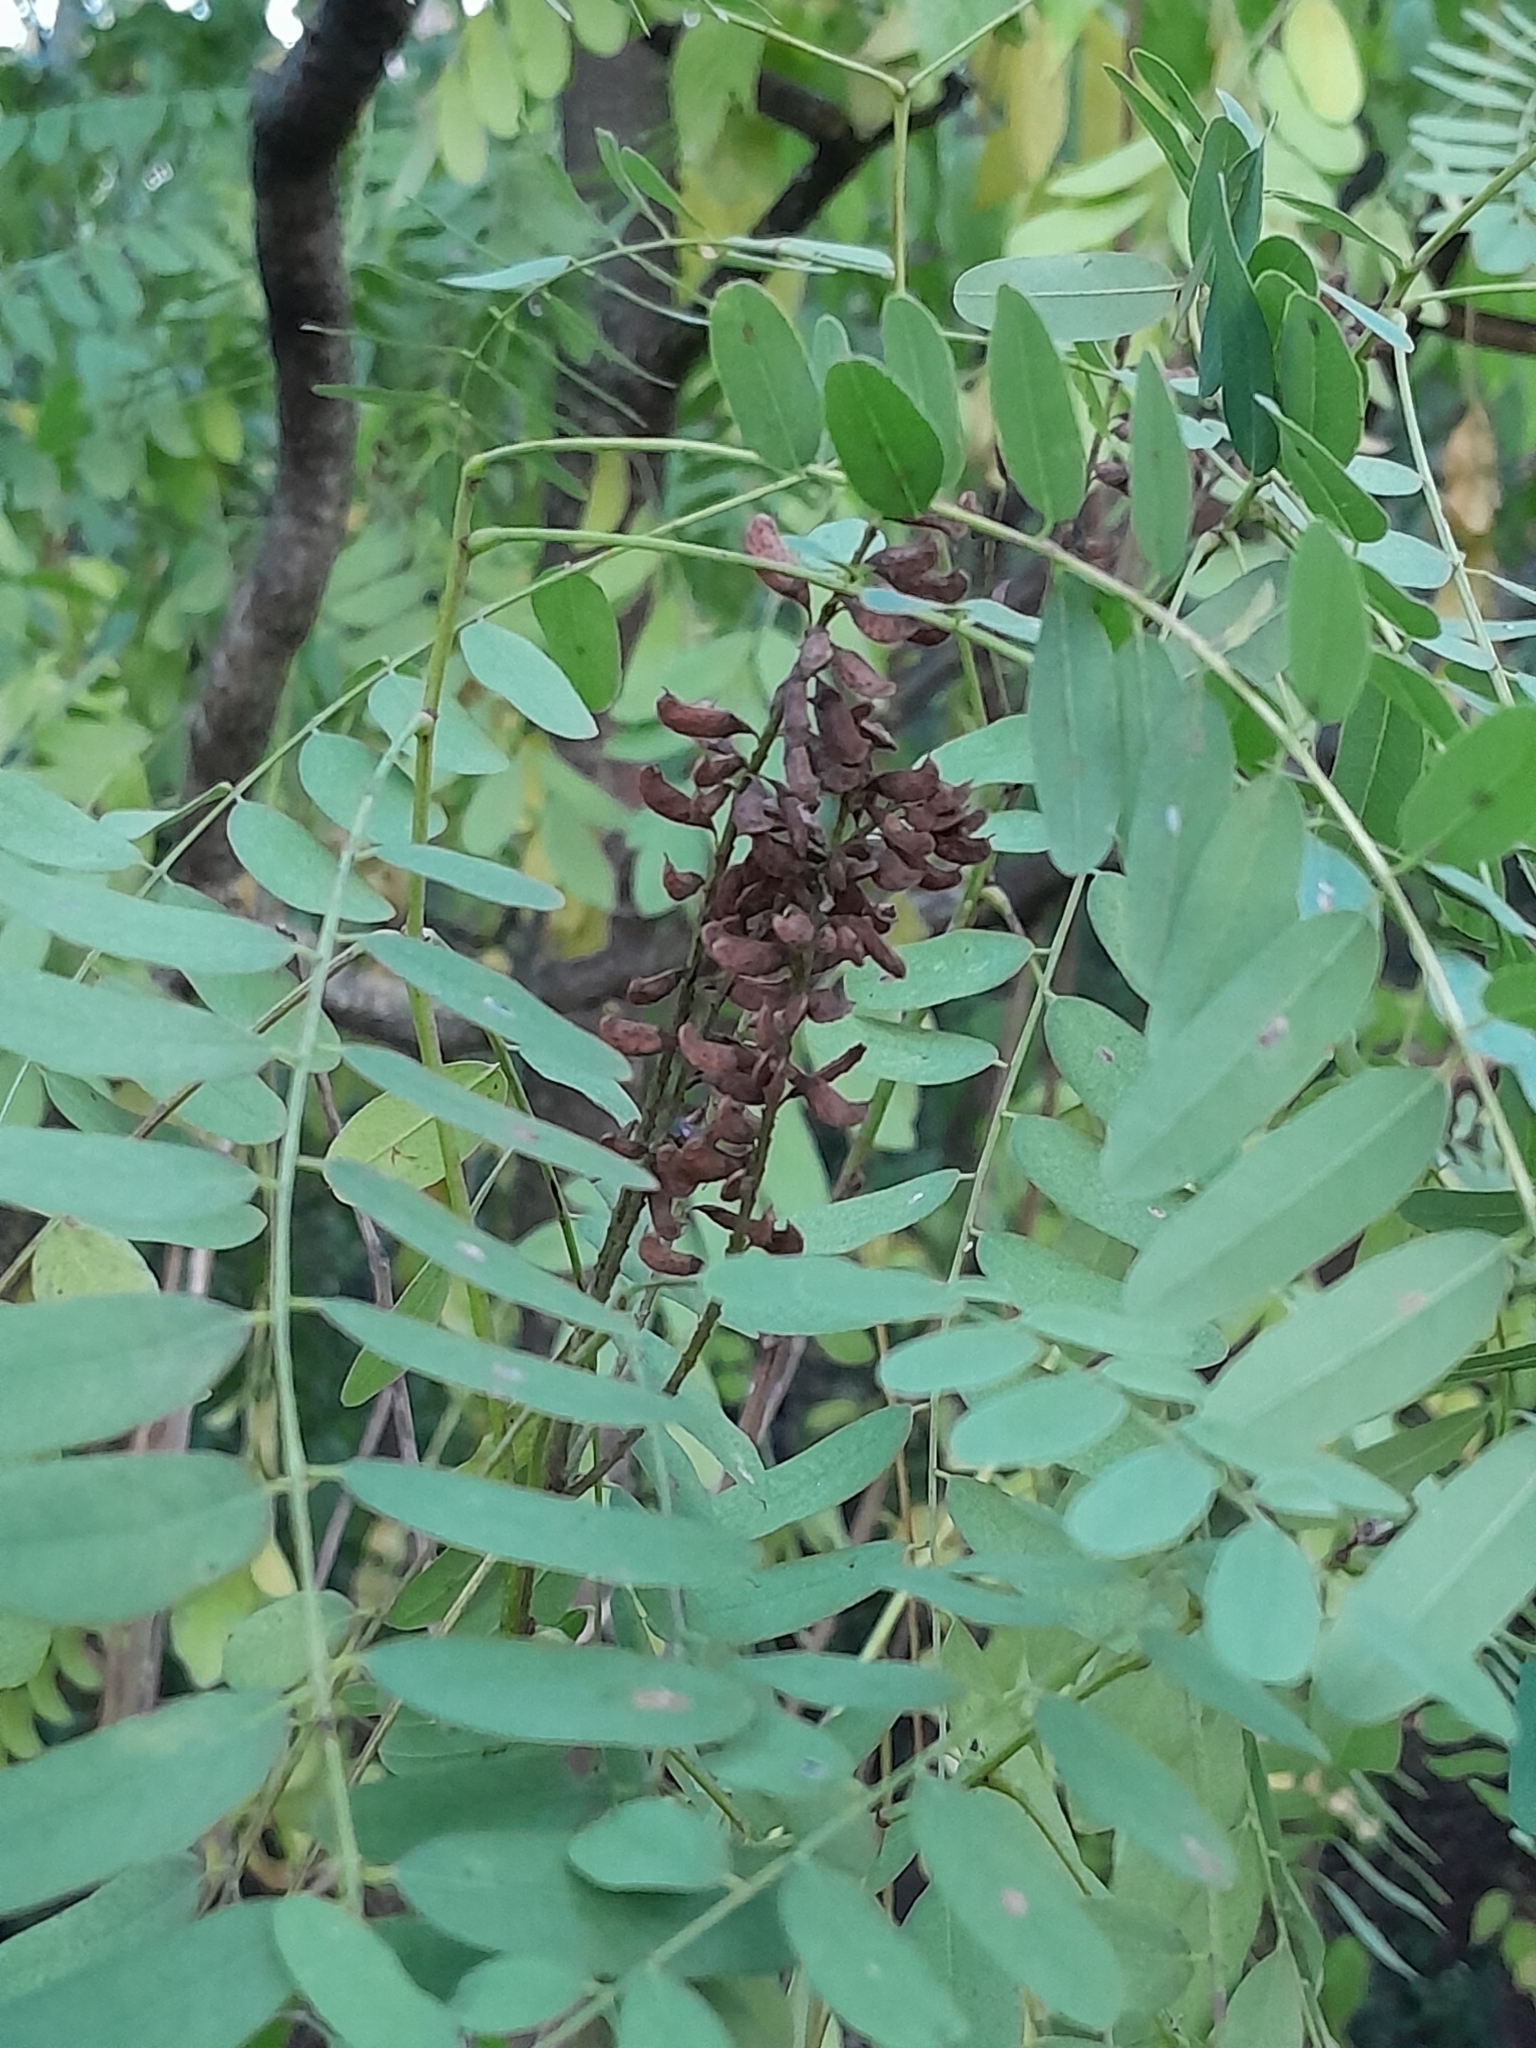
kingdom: Plantae
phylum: Tracheophyta
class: Magnoliopsida
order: Fabales
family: Fabaceae
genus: Amorpha
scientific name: Amorpha fruticosa
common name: False indigo
